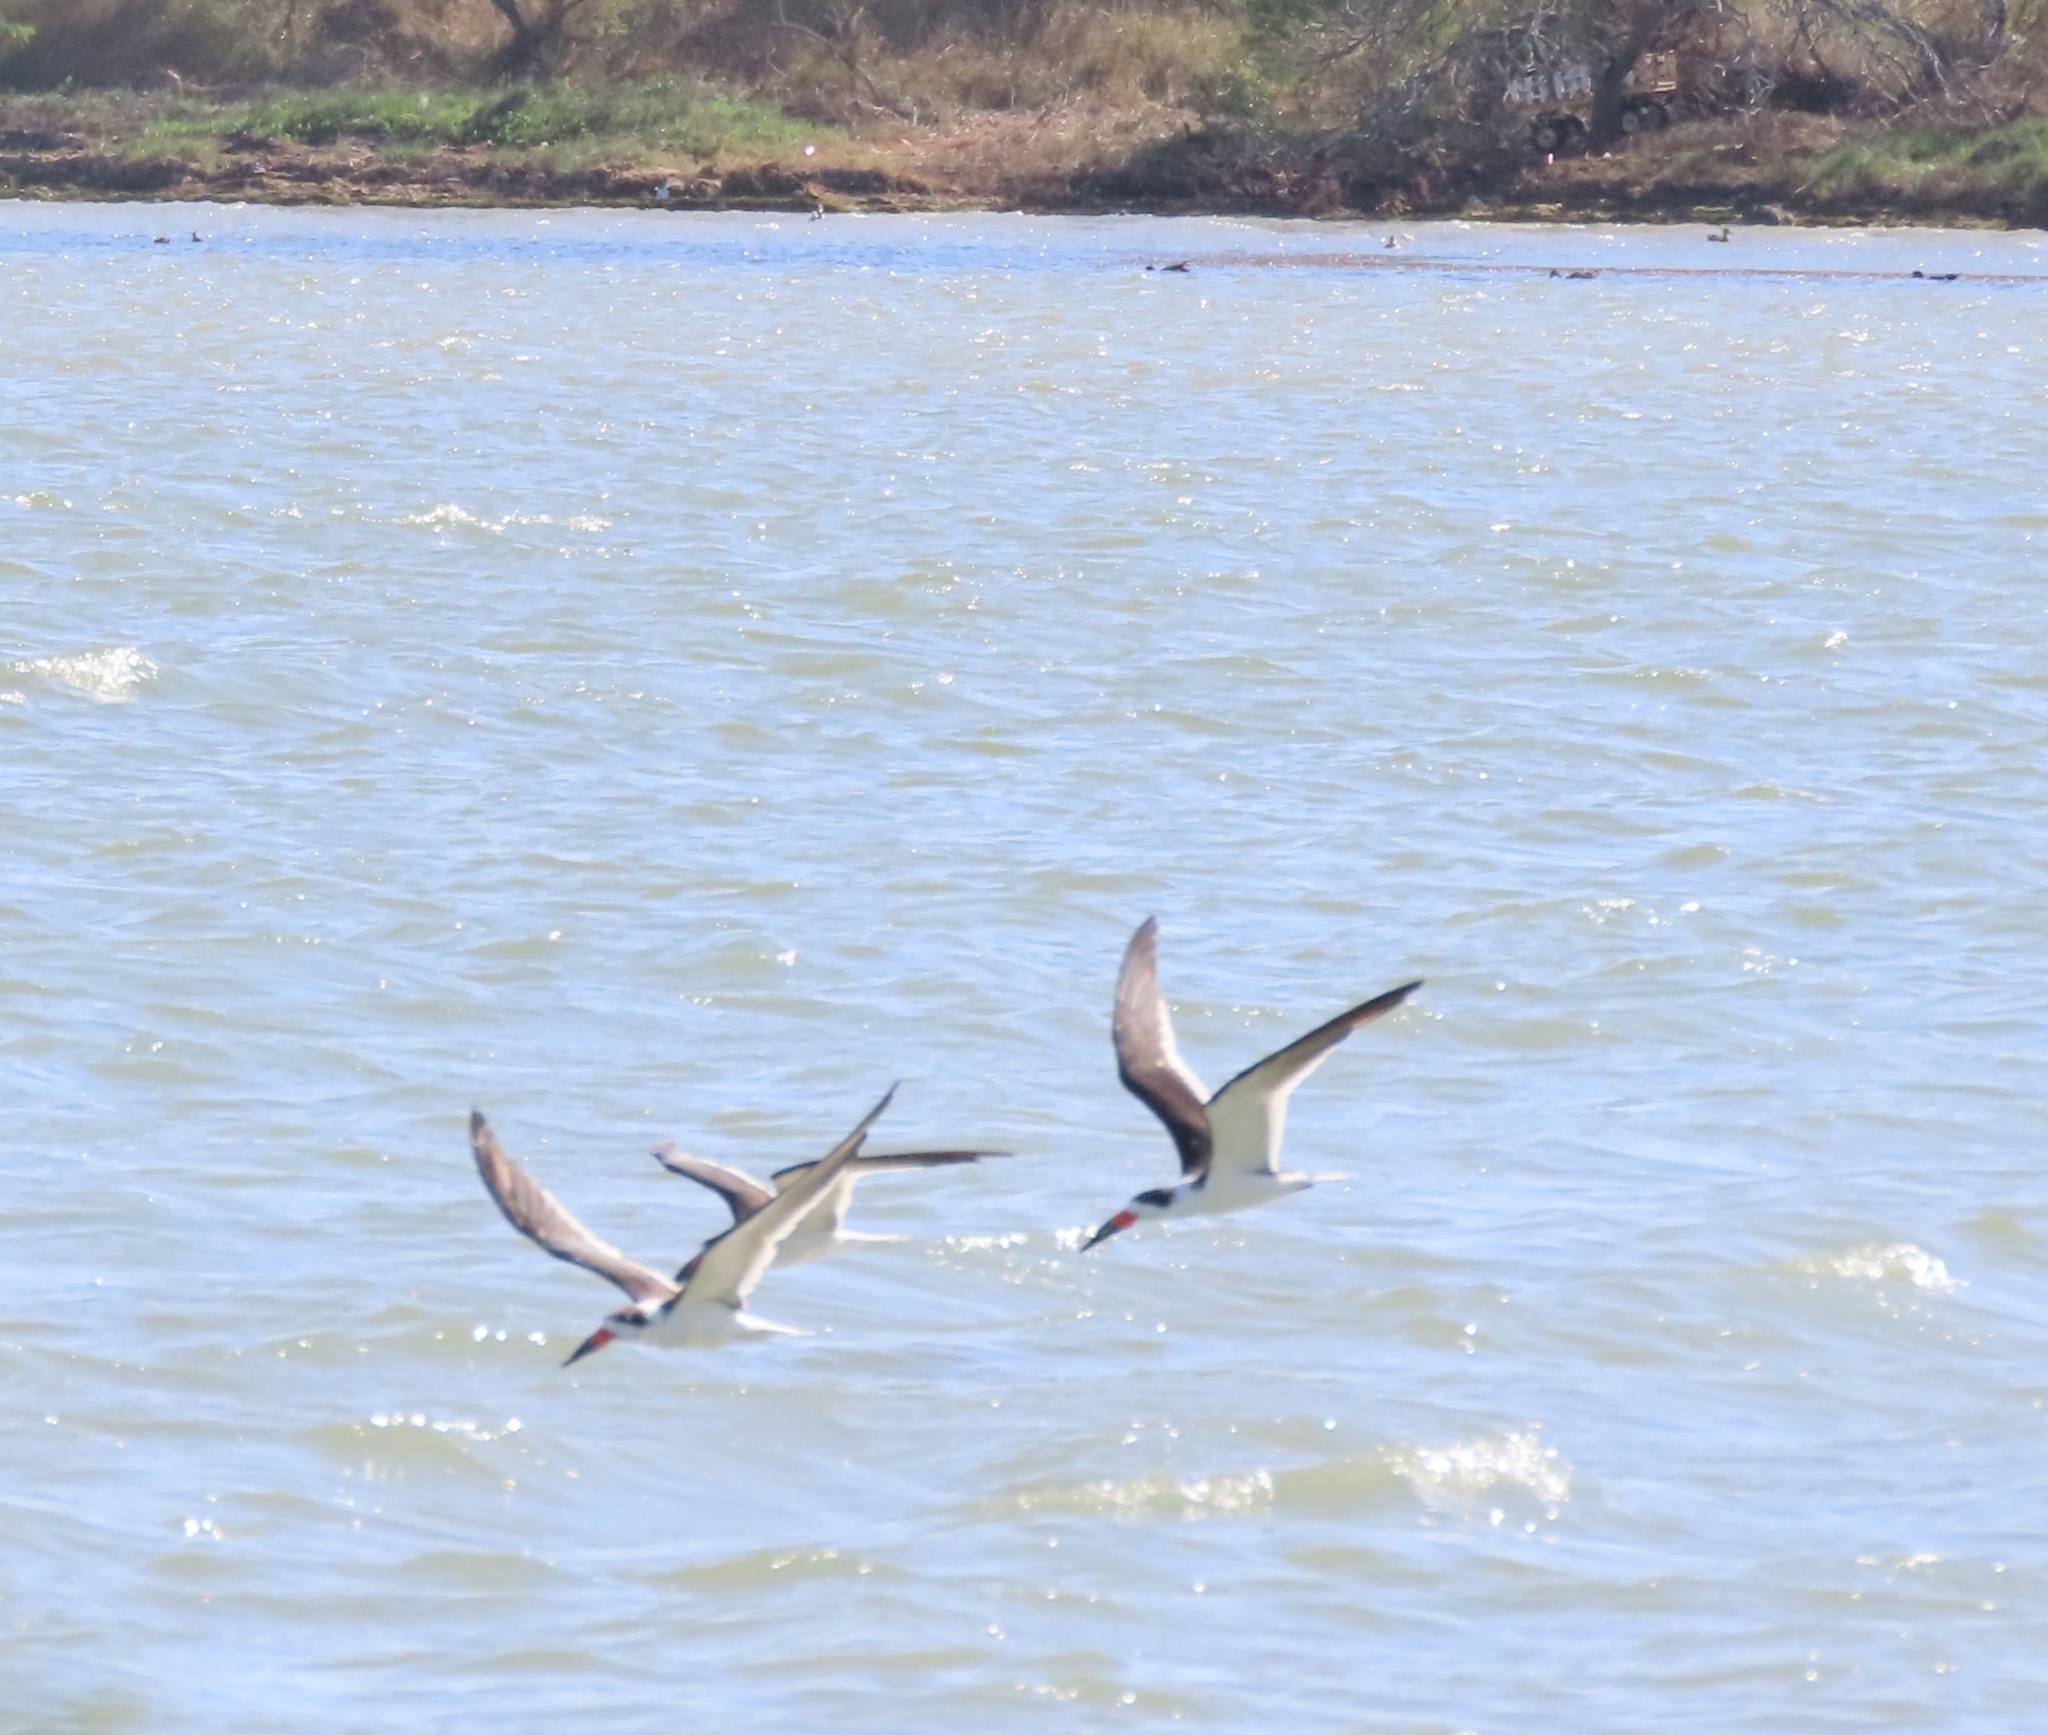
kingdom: Animalia
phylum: Chordata
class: Aves
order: Charadriiformes
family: Laridae
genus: Rynchops
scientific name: Rynchops niger
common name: Black skimmer
